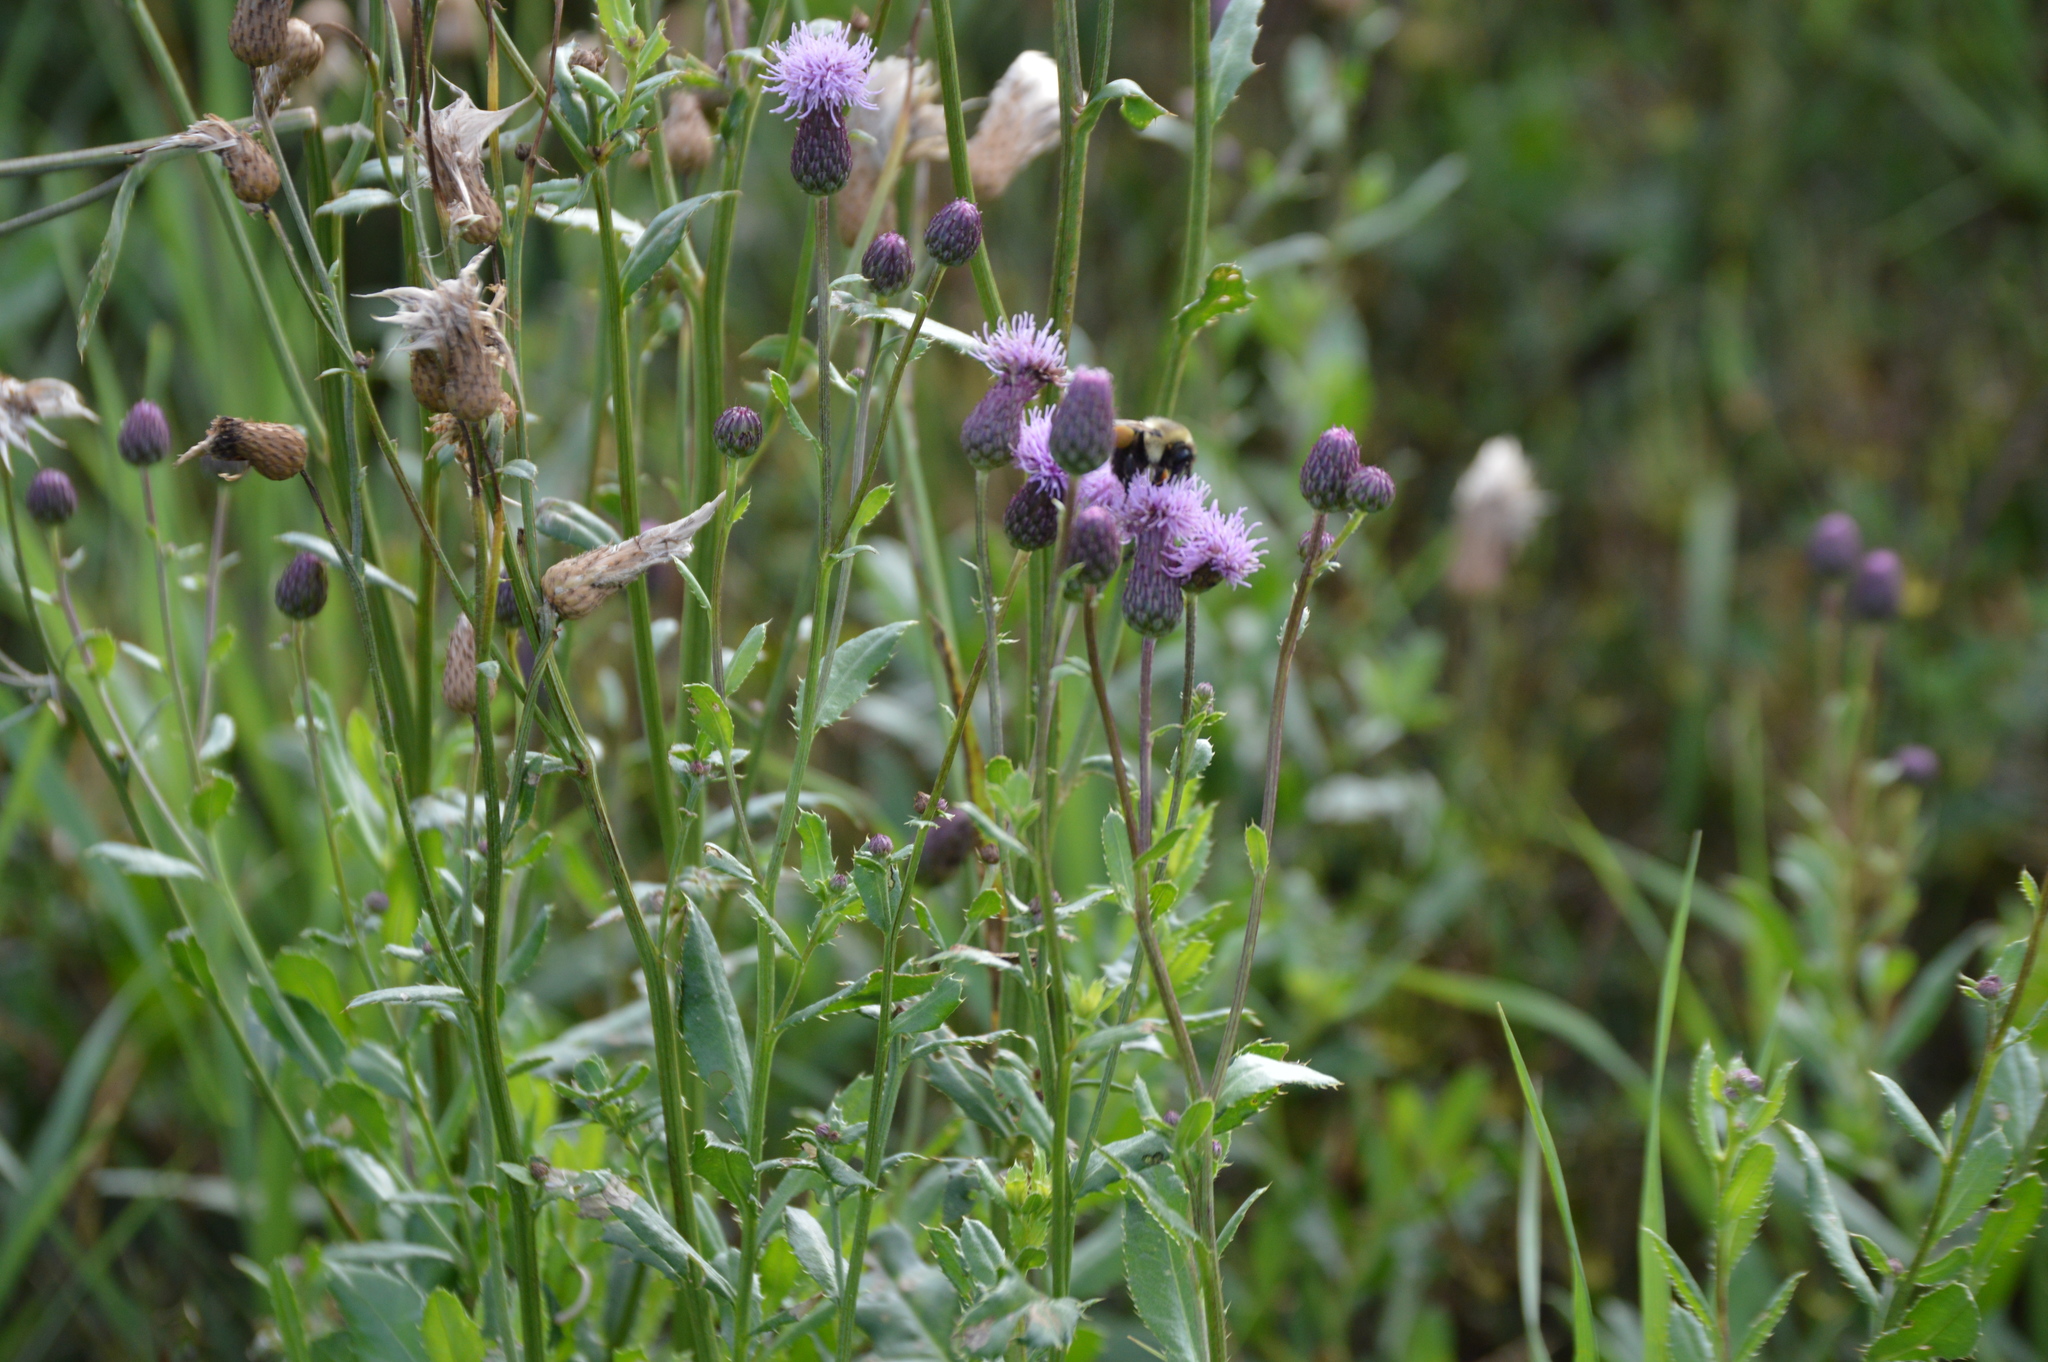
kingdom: Plantae
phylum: Tracheophyta
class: Magnoliopsida
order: Asterales
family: Asteraceae
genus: Cirsium
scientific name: Cirsium arvense
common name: Creeping thistle
